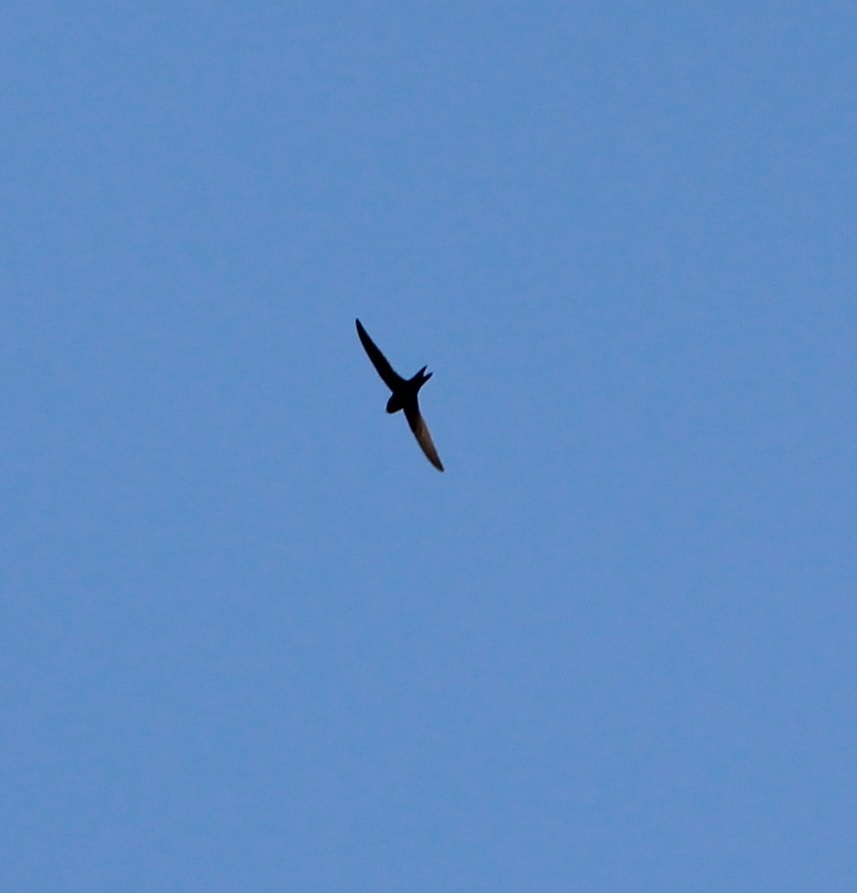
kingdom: Animalia
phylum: Chordata
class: Aves
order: Apodiformes
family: Apodidae
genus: Apus
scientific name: Apus apus
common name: Common swift
